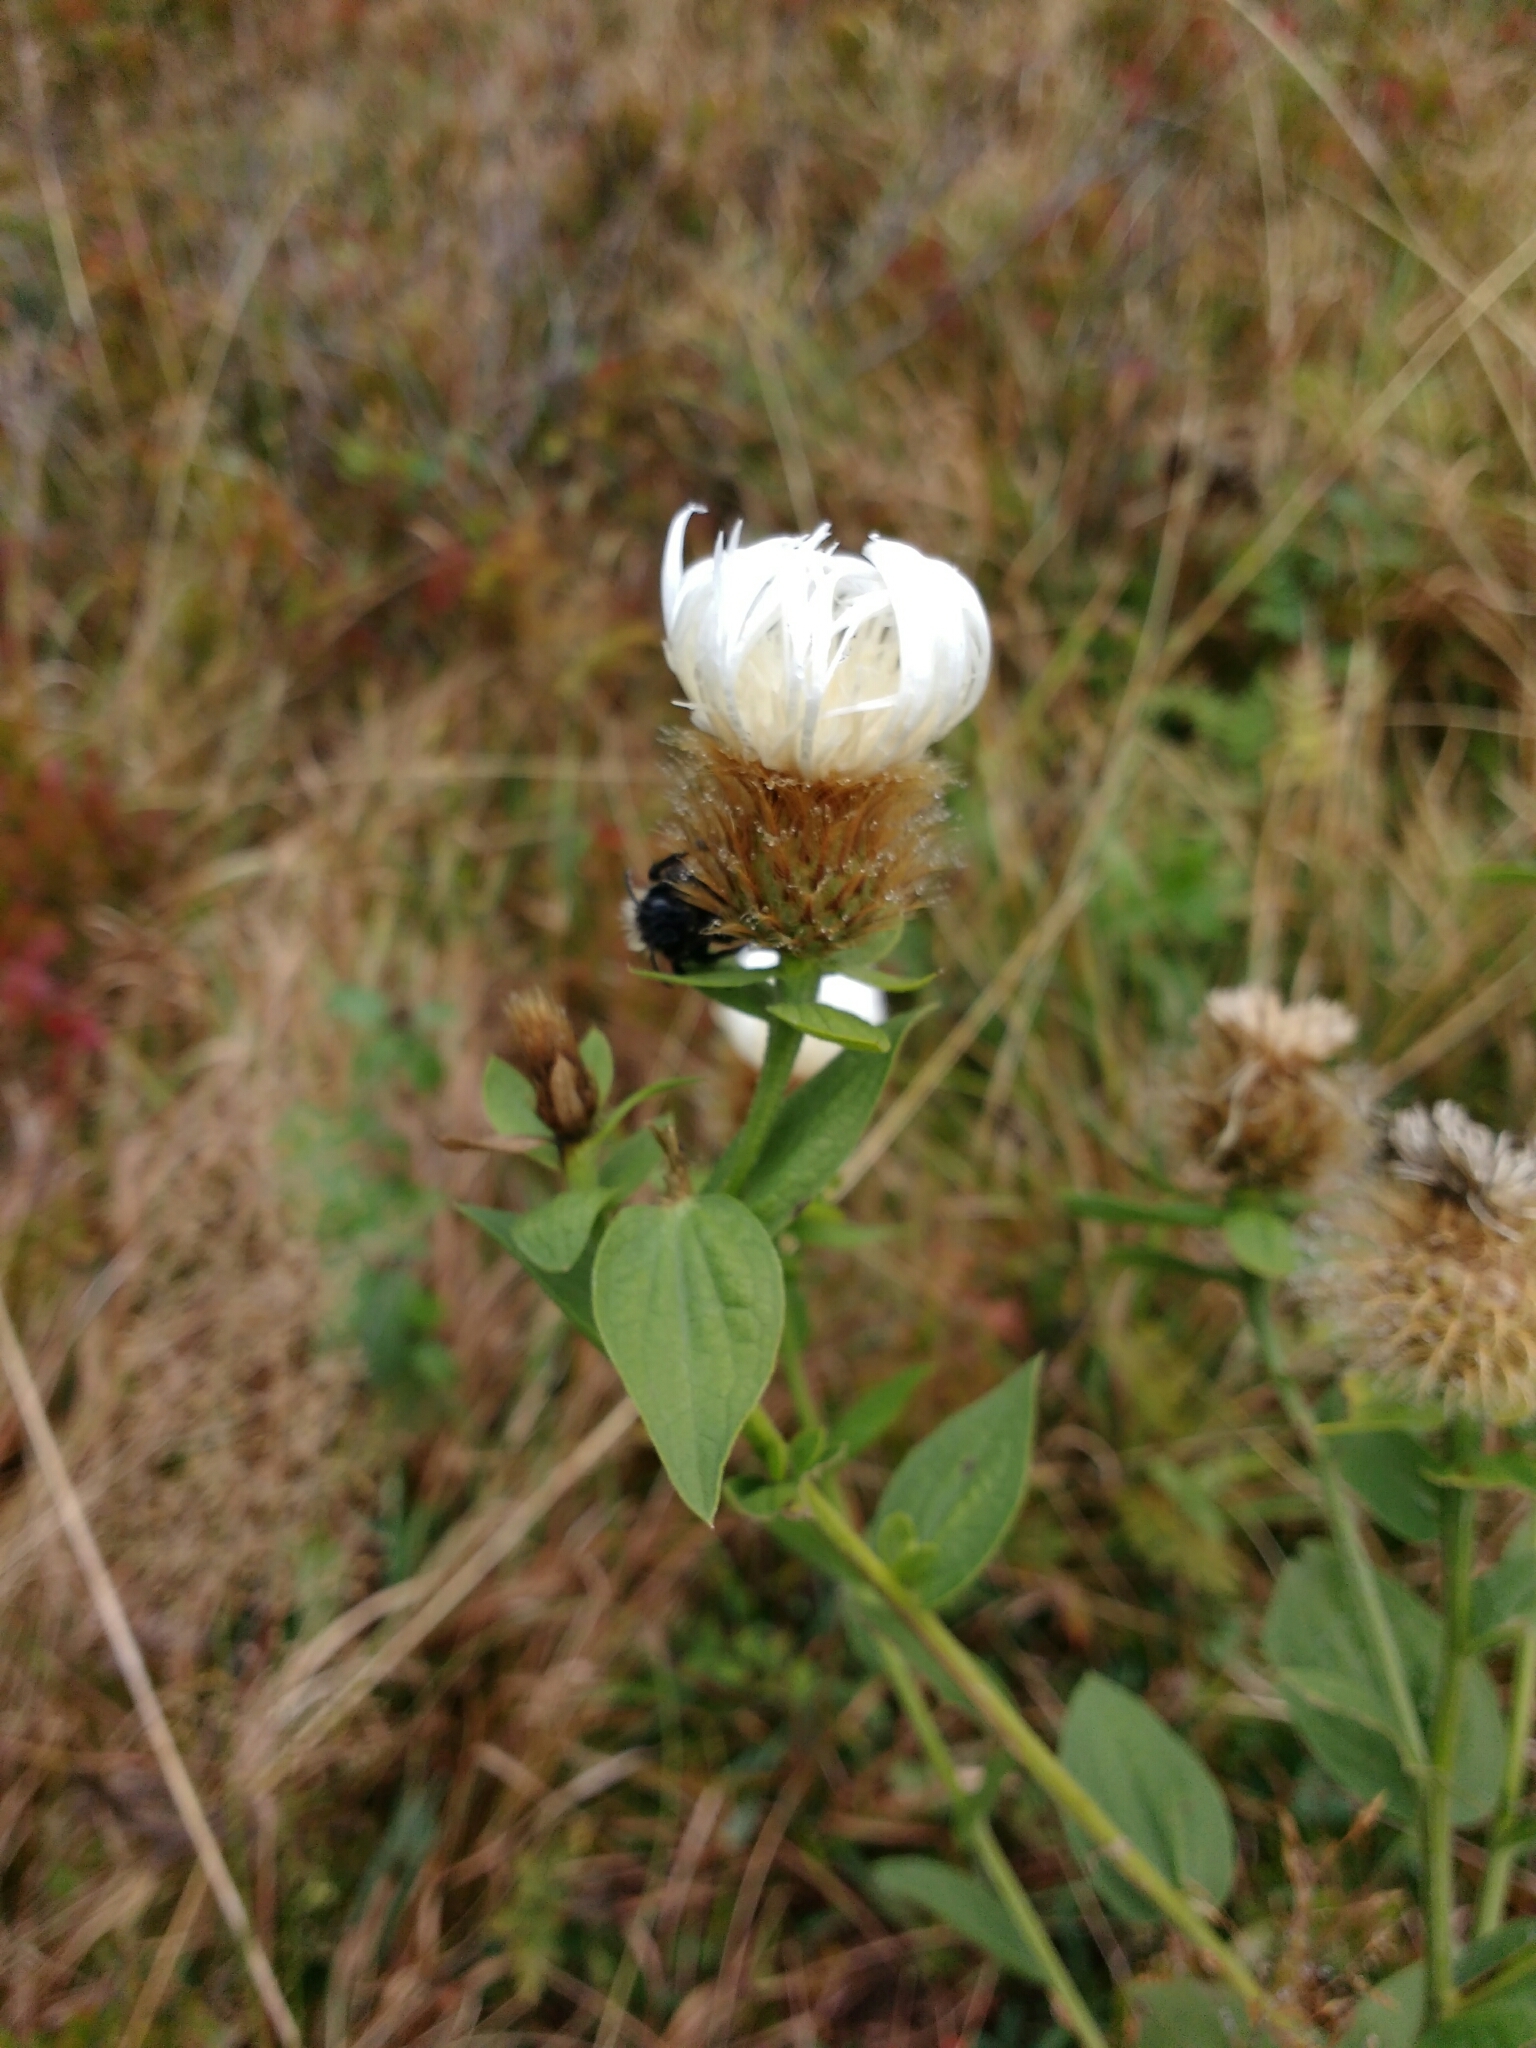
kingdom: Plantae
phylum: Tracheophyta
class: Magnoliopsida
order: Asterales
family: Asteraceae
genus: Centaurea
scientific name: Centaurea pseudophrygia
